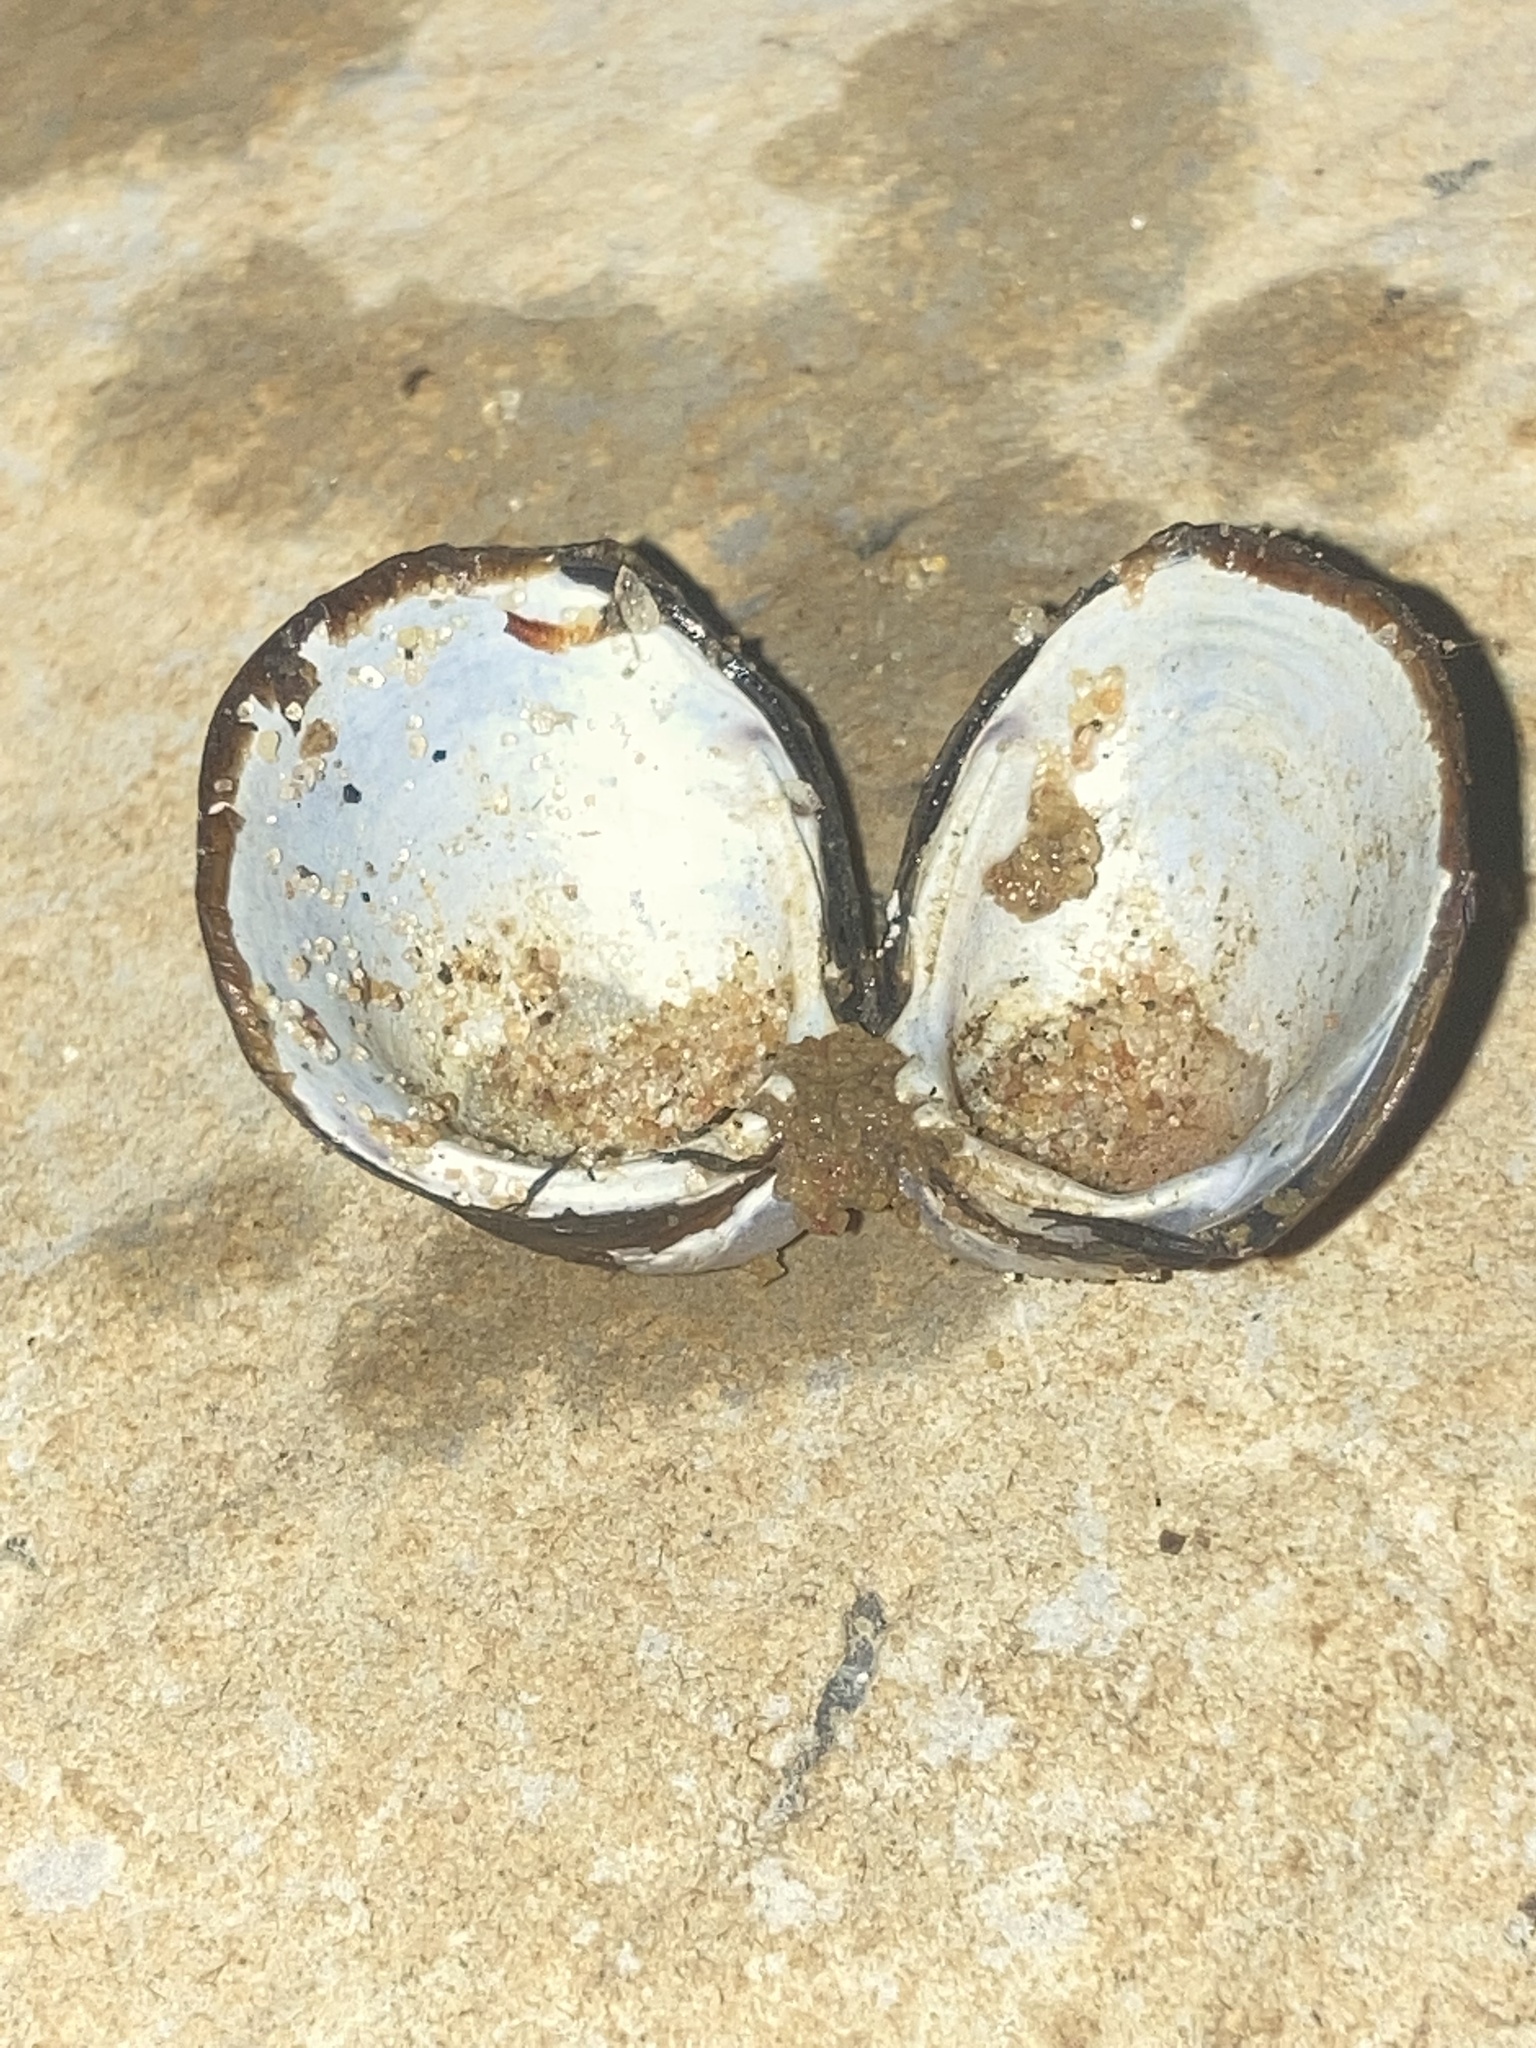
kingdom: Animalia
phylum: Mollusca
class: Bivalvia
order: Venerida
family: Cyrenidae
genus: Corbicula
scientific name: Corbicula fluminea
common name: Asian clam
